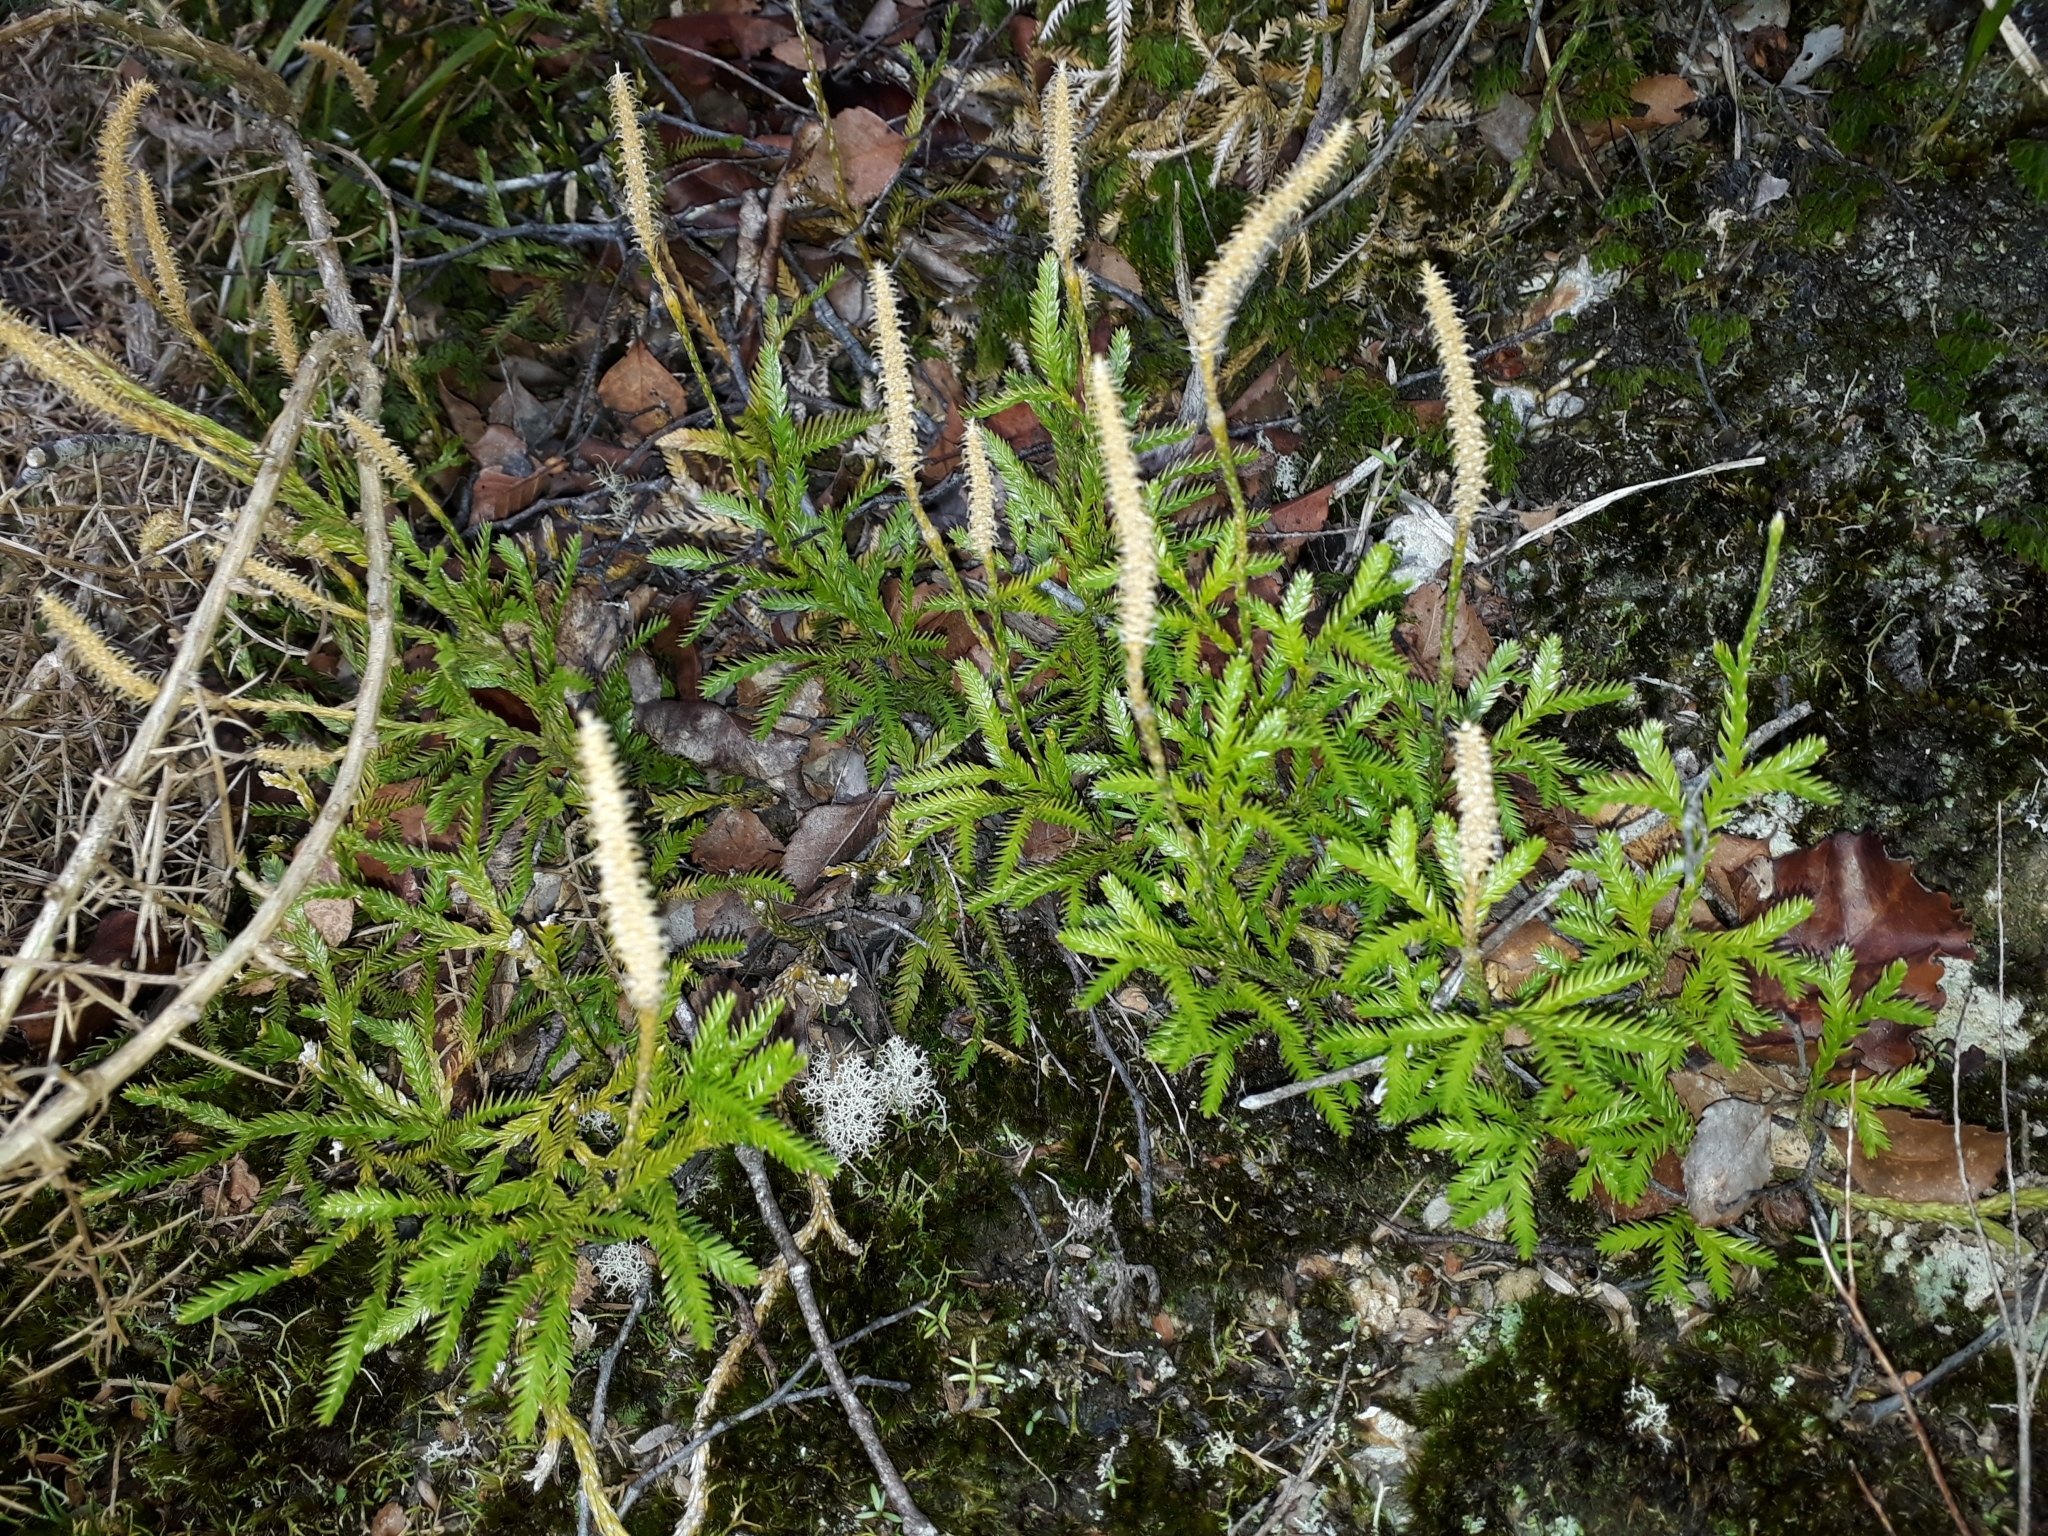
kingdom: Plantae
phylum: Tracheophyta
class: Lycopodiopsida
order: Lycopodiales
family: Lycopodiaceae
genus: Diphasium
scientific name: Diphasium scariosum
